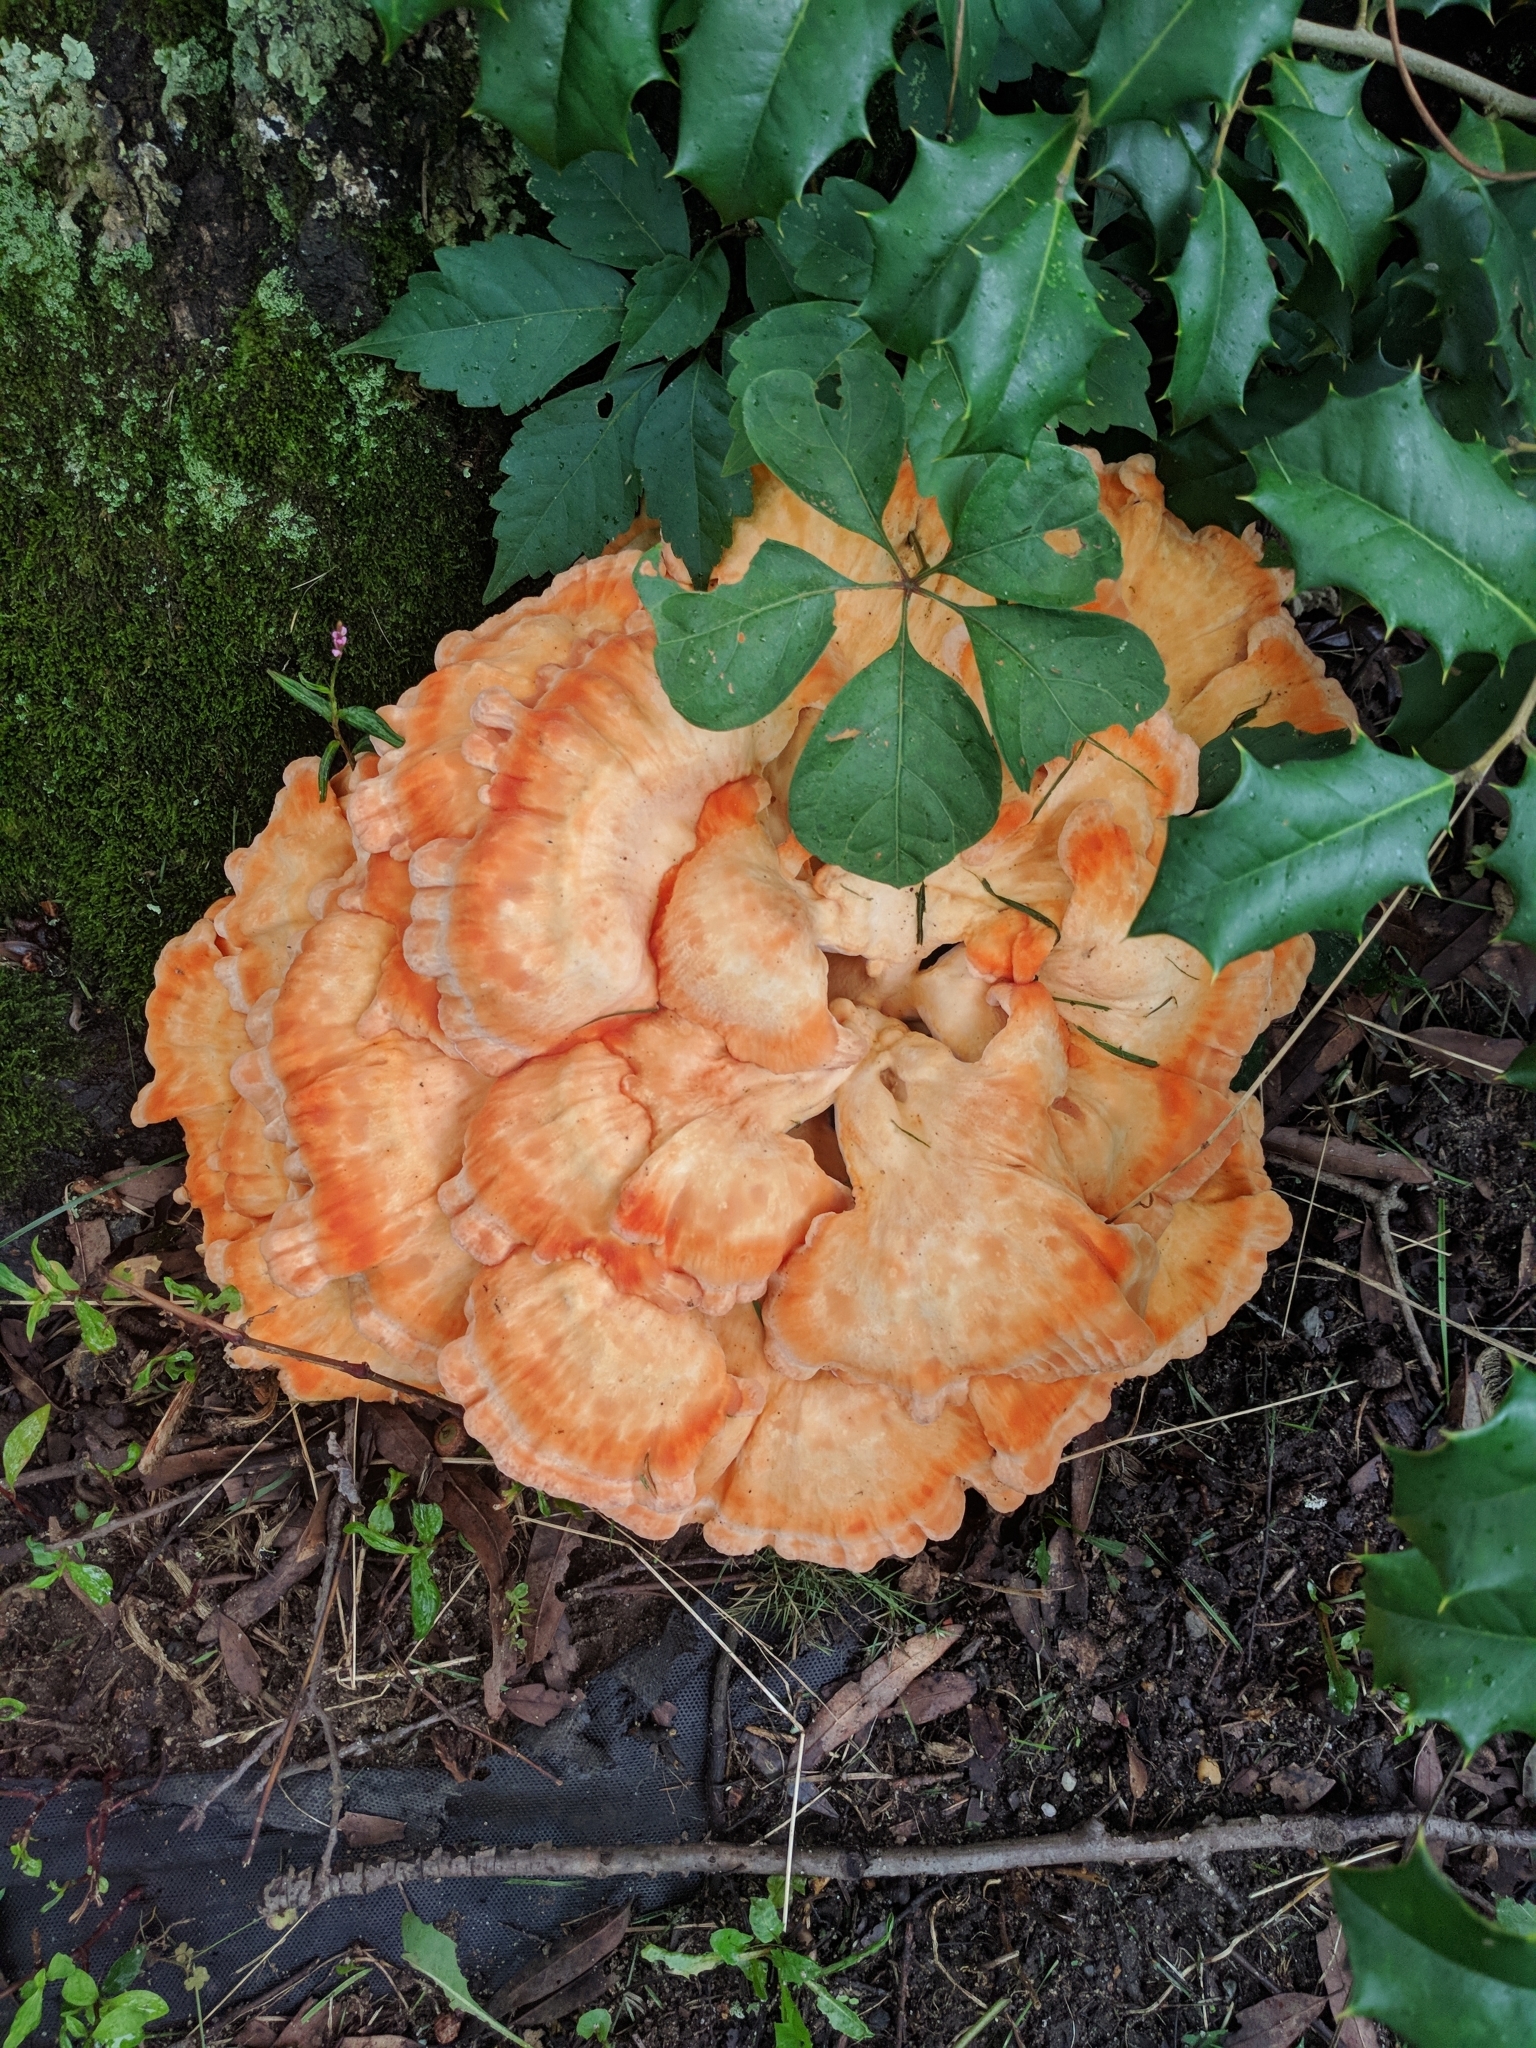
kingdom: Fungi
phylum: Basidiomycota
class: Agaricomycetes
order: Polyporales
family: Laetiporaceae
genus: Laetiporus
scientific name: Laetiporus sulphureus
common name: Chicken of the woods
